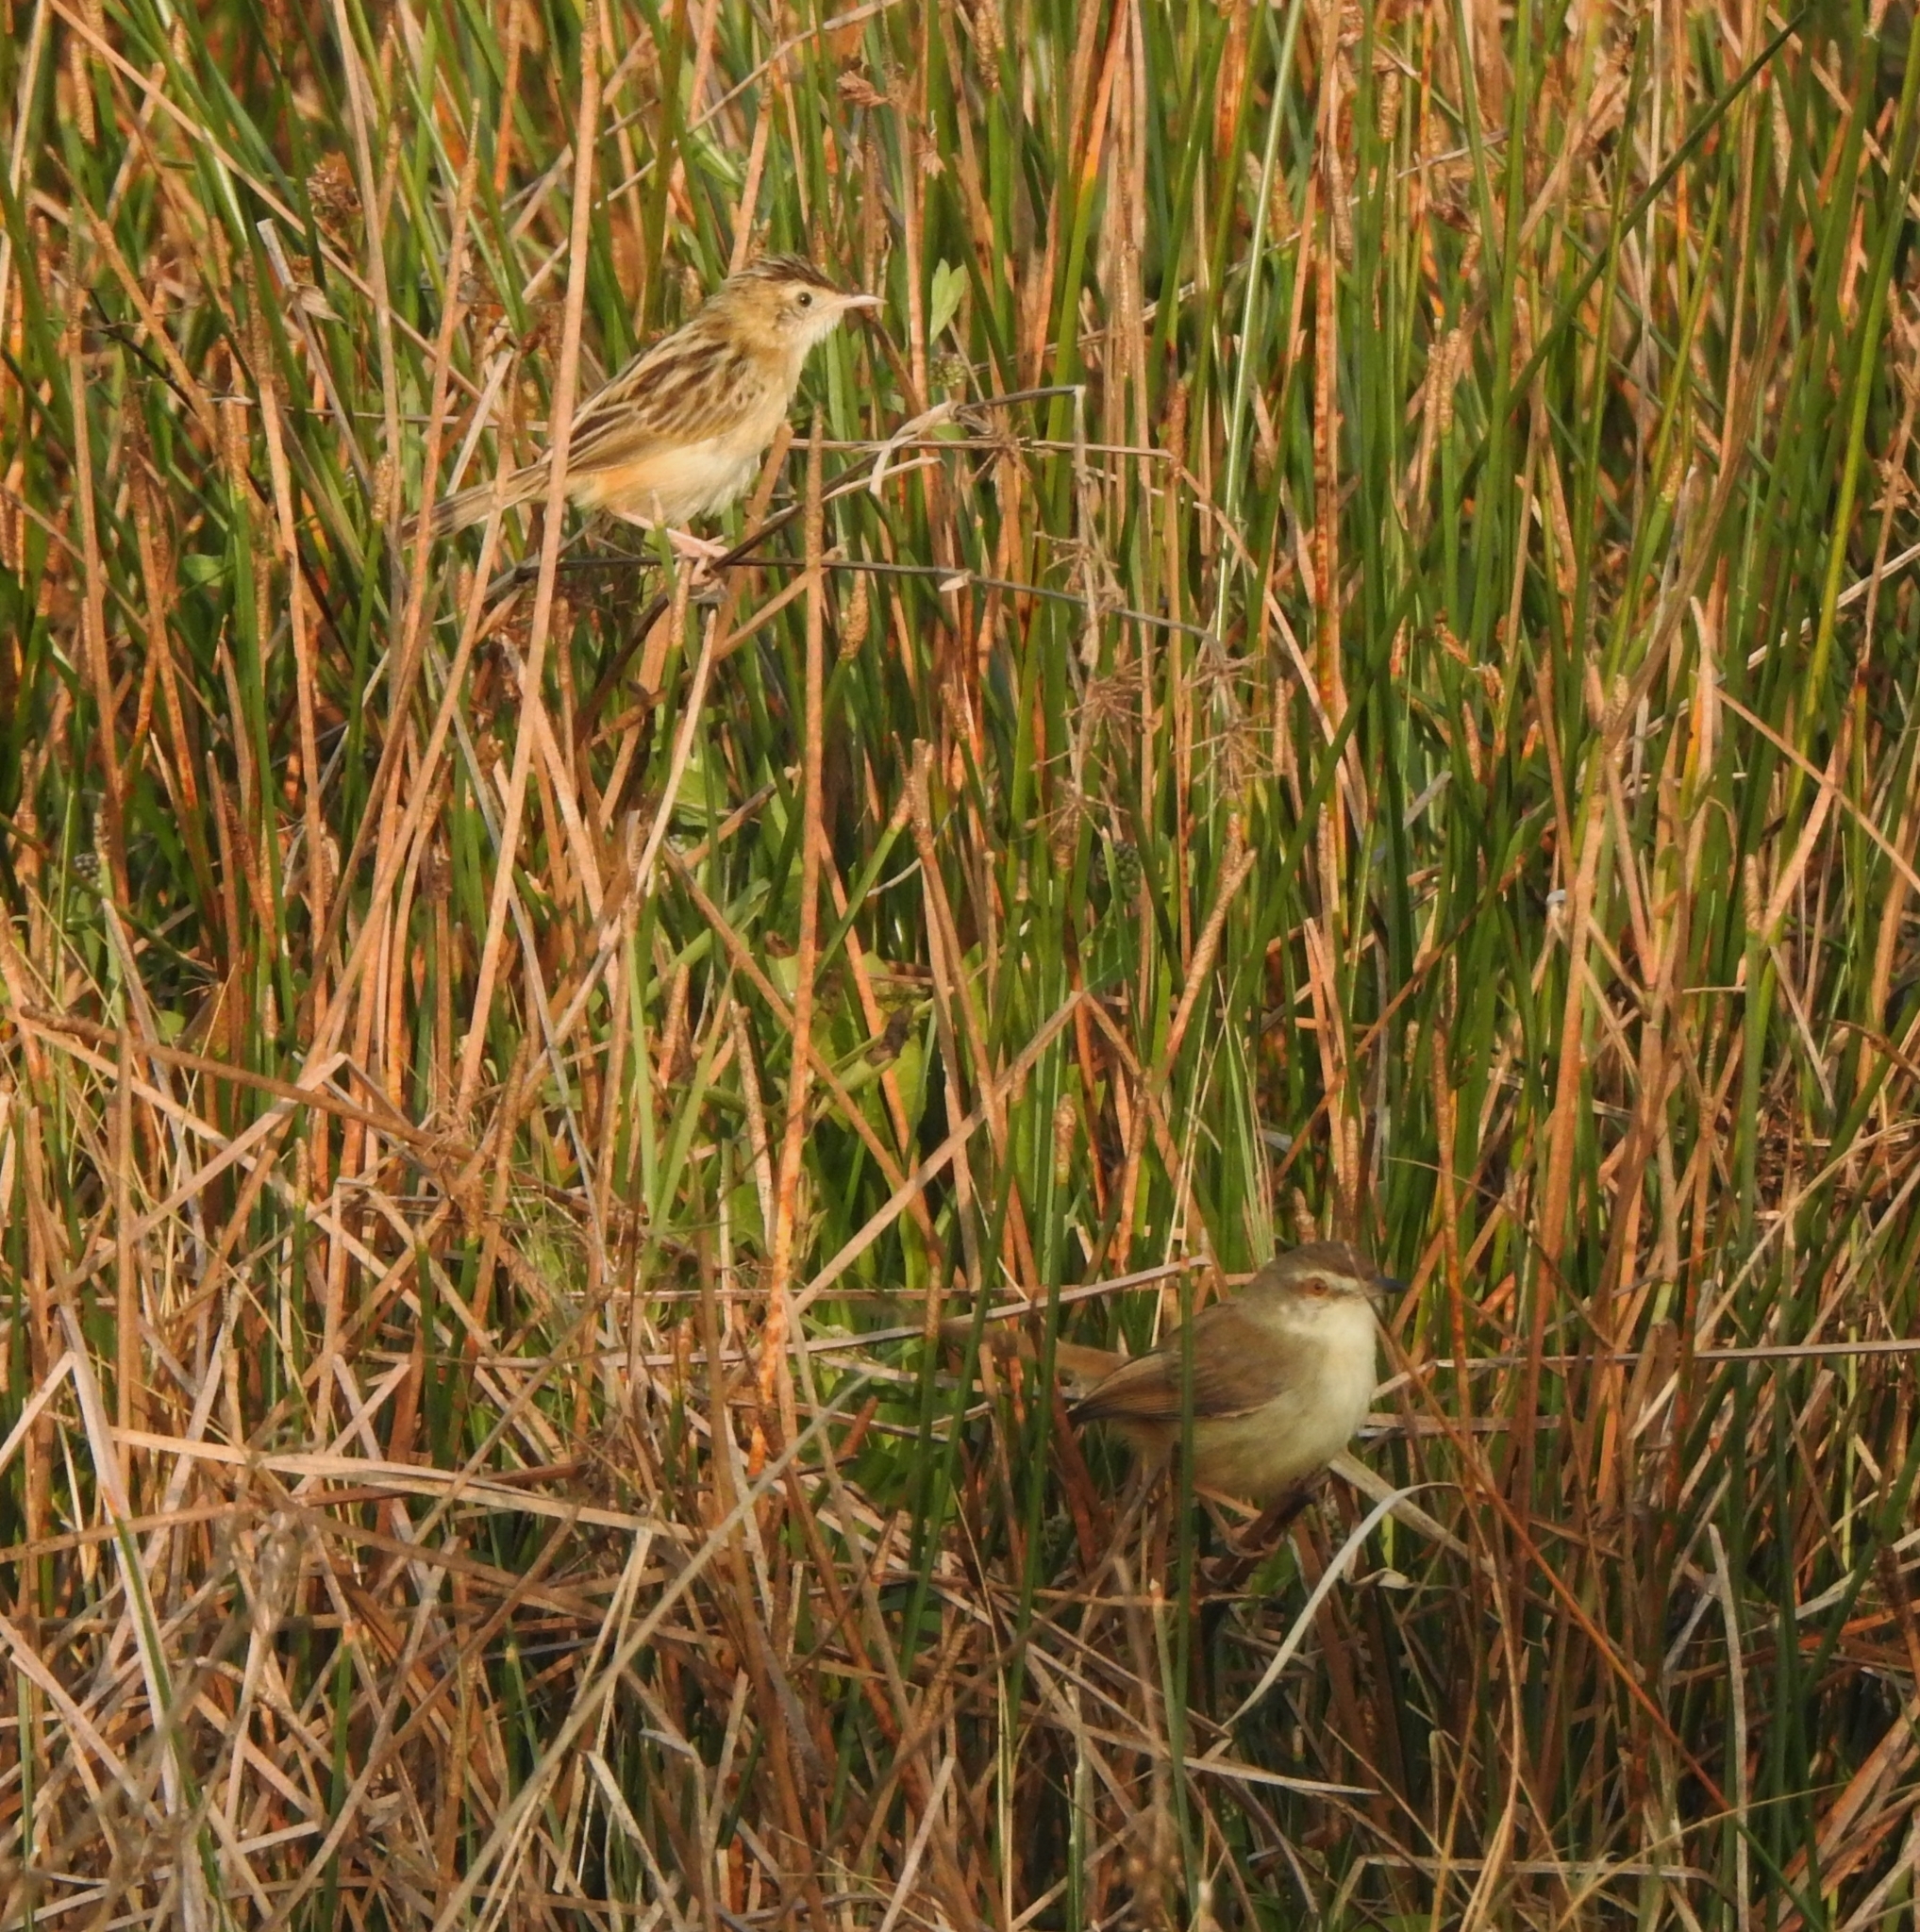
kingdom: Animalia
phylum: Chordata
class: Aves
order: Passeriformes
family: Cisticolidae
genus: Prinia
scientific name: Prinia inornata
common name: Plain prinia
